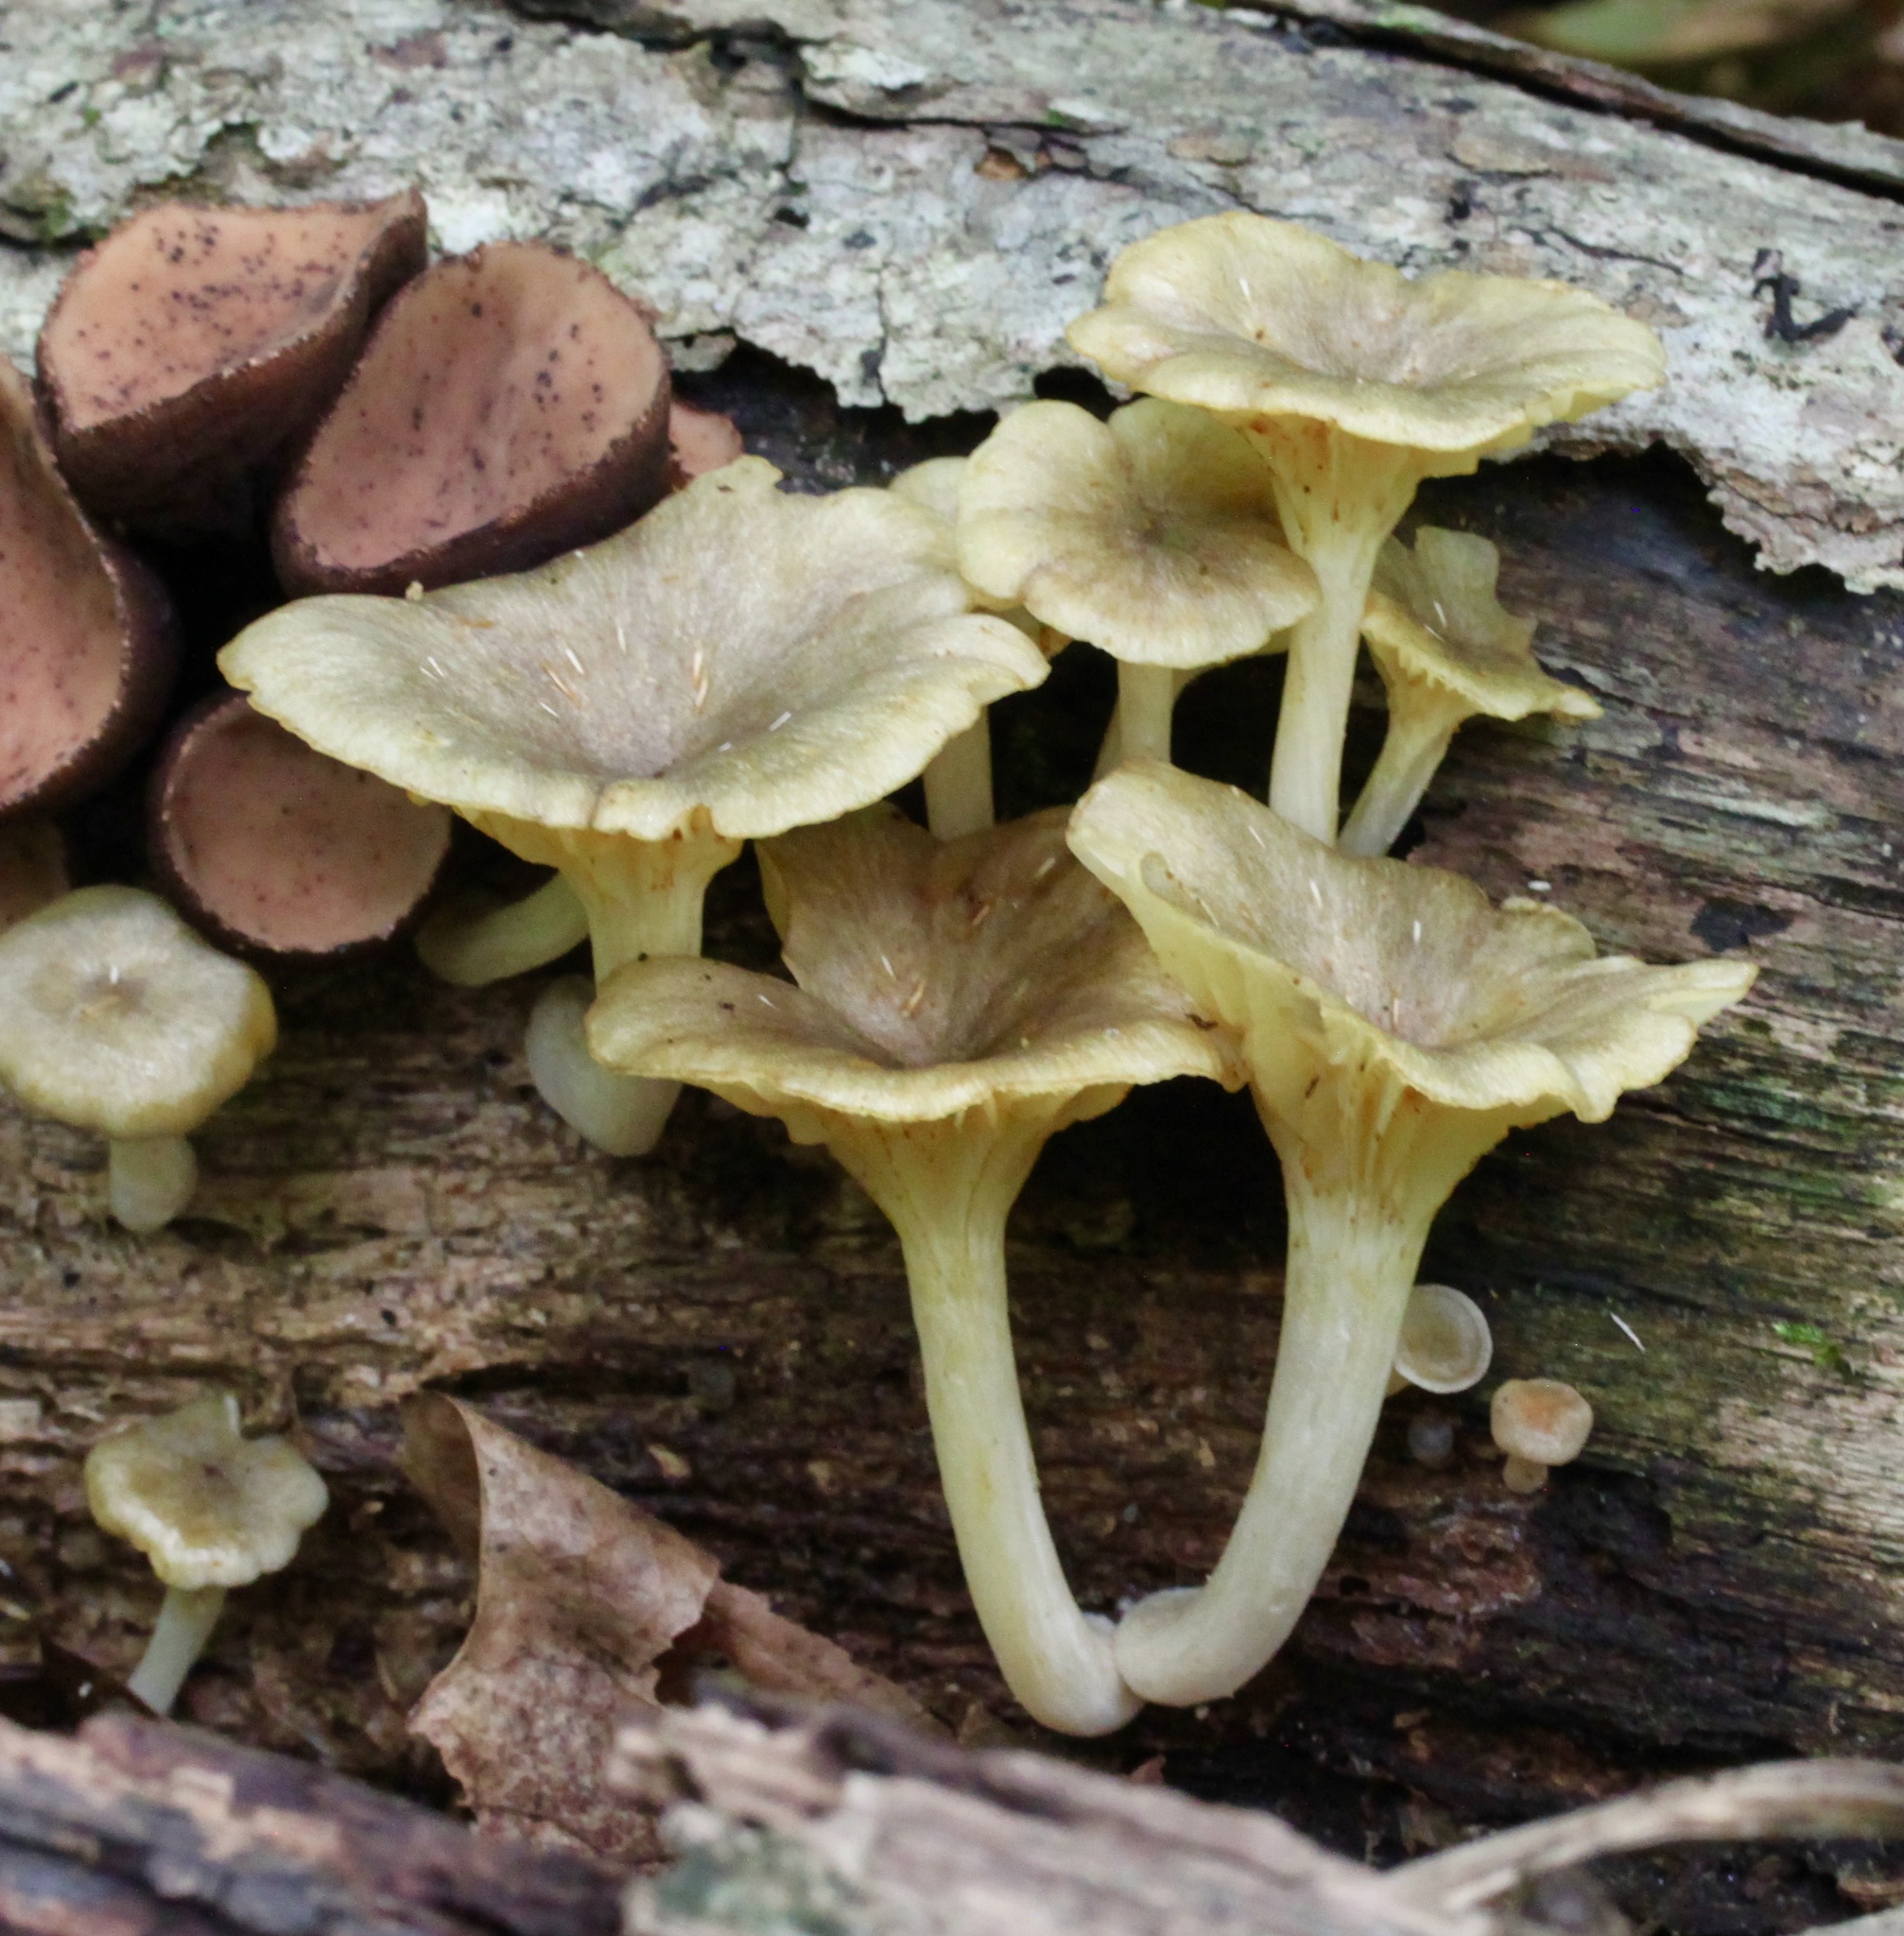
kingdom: Fungi
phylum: Basidiomycota
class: Agaricomycetes
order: Agaricales
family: Marasmiaceae
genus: Gerronema
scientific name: Gerronema strombodes
